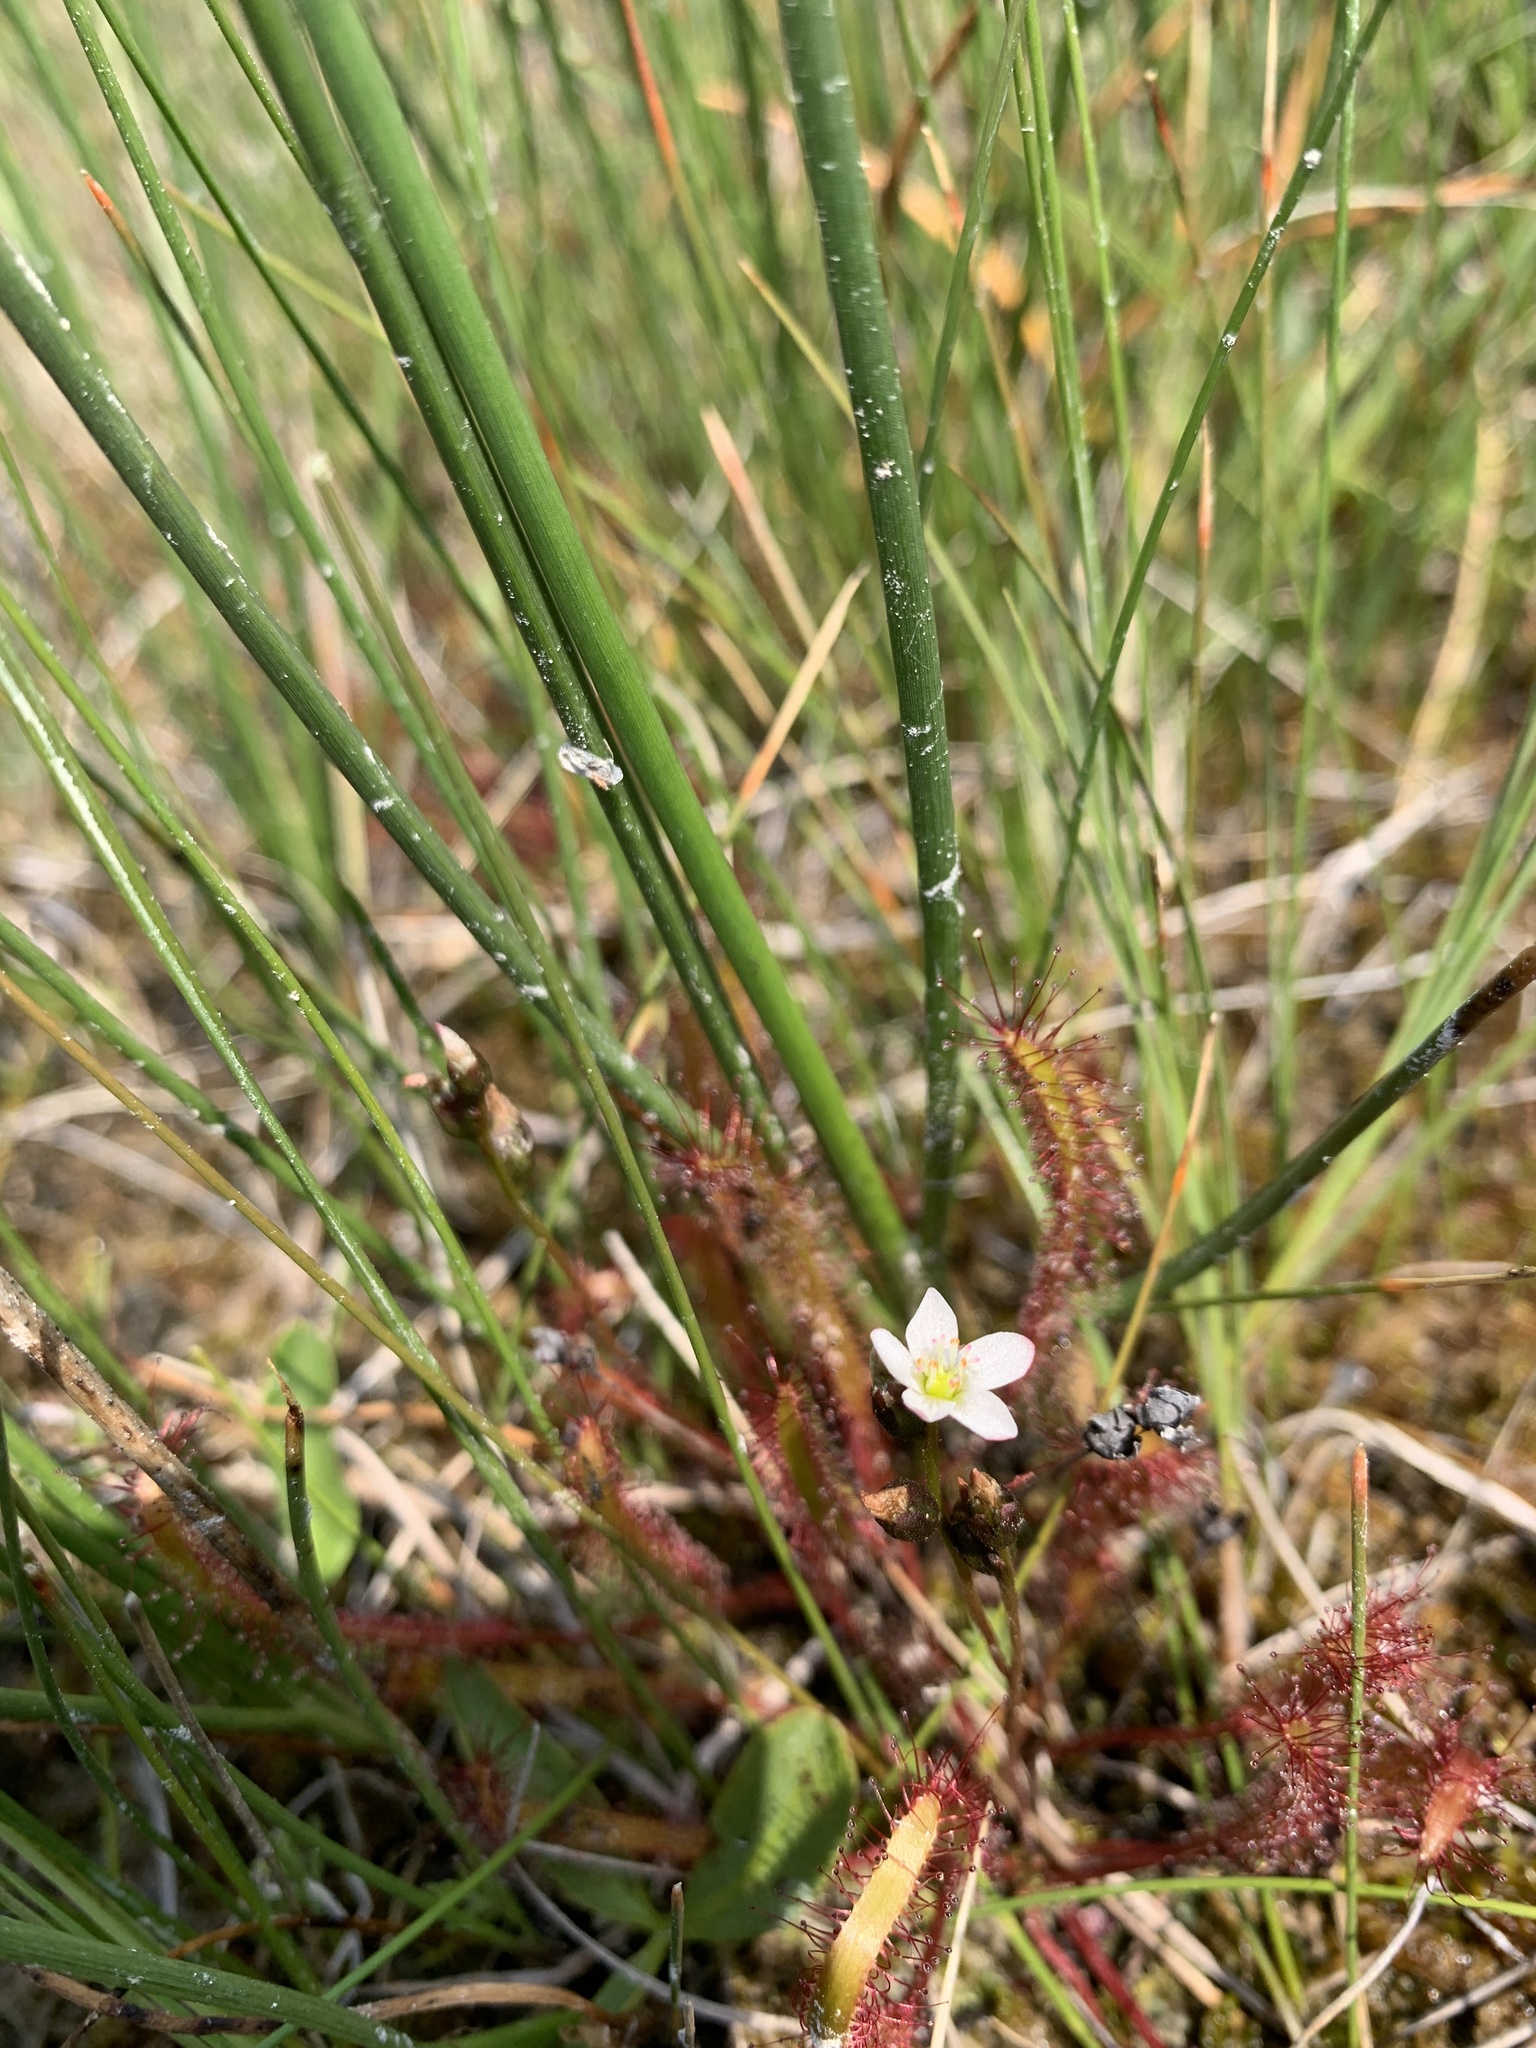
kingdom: Plantae
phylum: Tracheophyta
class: Magnoliopsida
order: Caryophyllales
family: Droseraceae
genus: Drosera
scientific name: Drosera linearis
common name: Linear-leaved sundew
